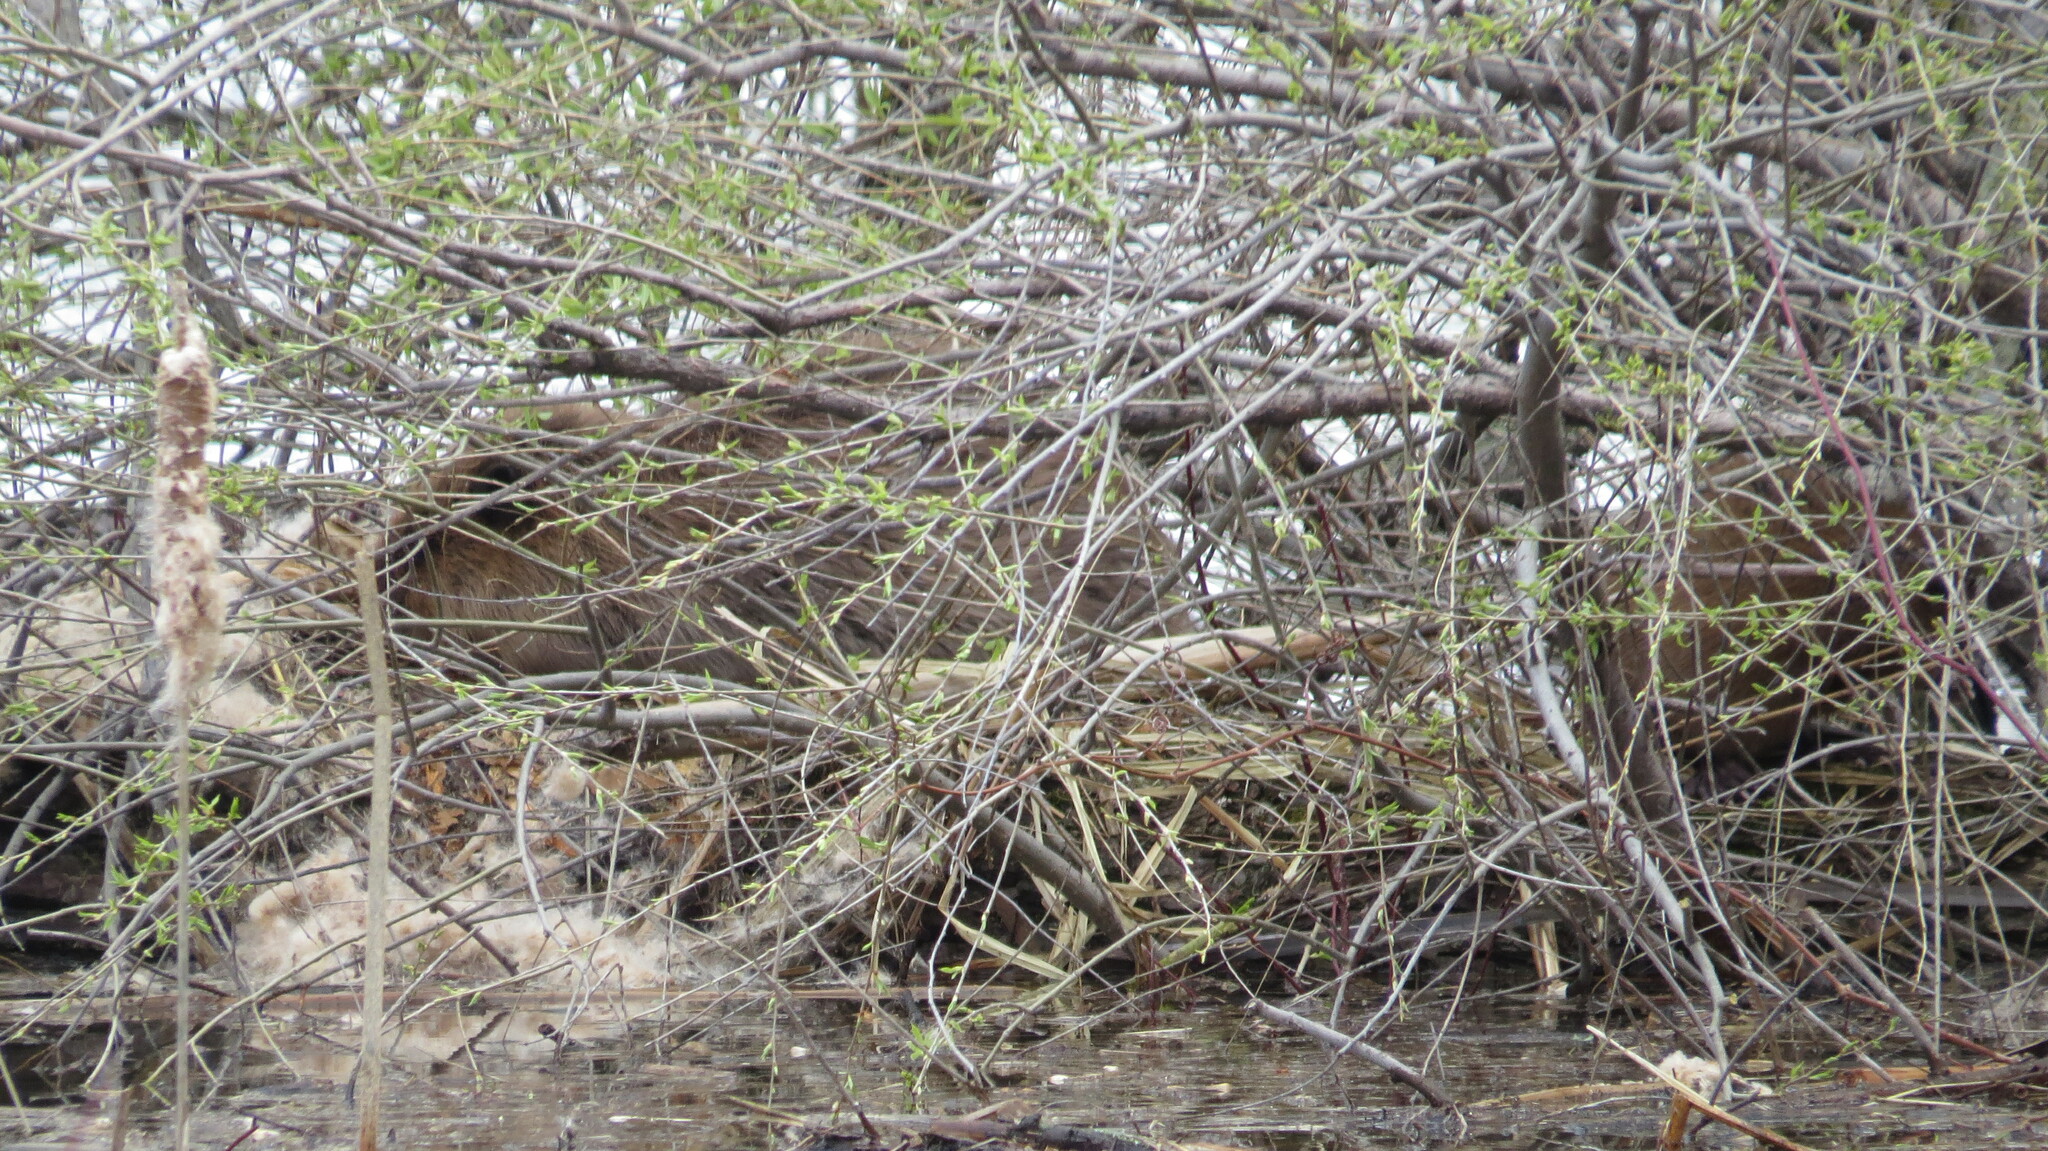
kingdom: Animalia
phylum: Chordata
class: Mammalia
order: Rodentia
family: Castoridae
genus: Castor
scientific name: Castor canadensis
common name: American beaver
